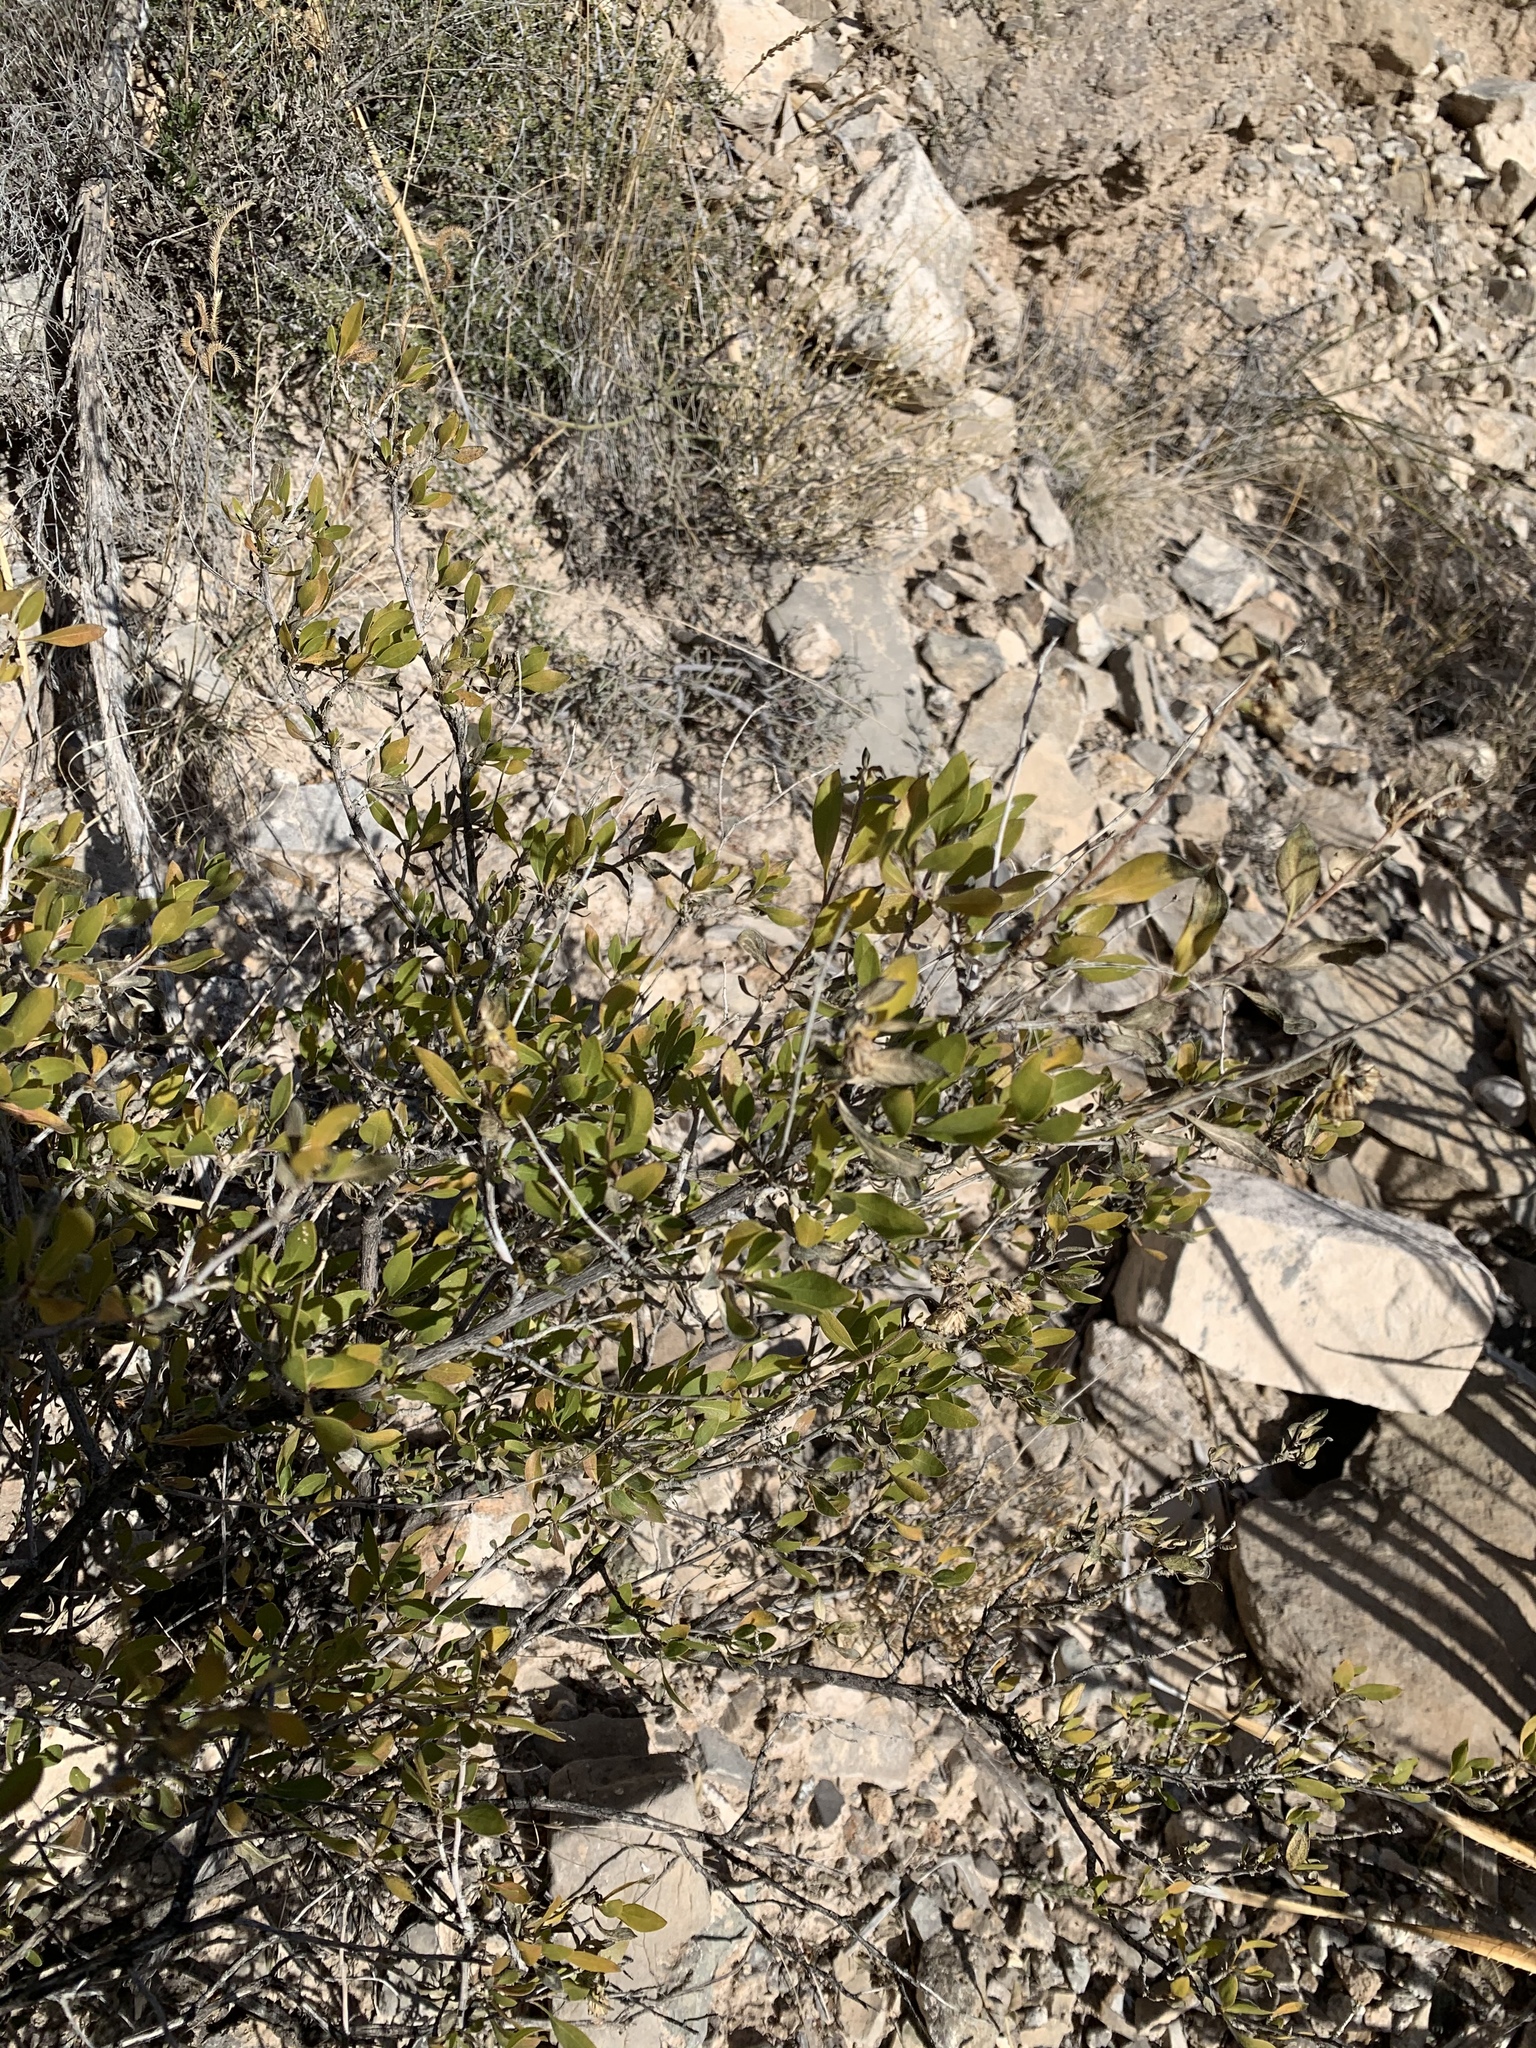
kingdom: Plantae
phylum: Tracheophyta
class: Magnoliopsida
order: Asterales
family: Asteraceae
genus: Flourensia
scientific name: Flourensia cernua
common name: Varnishbush
